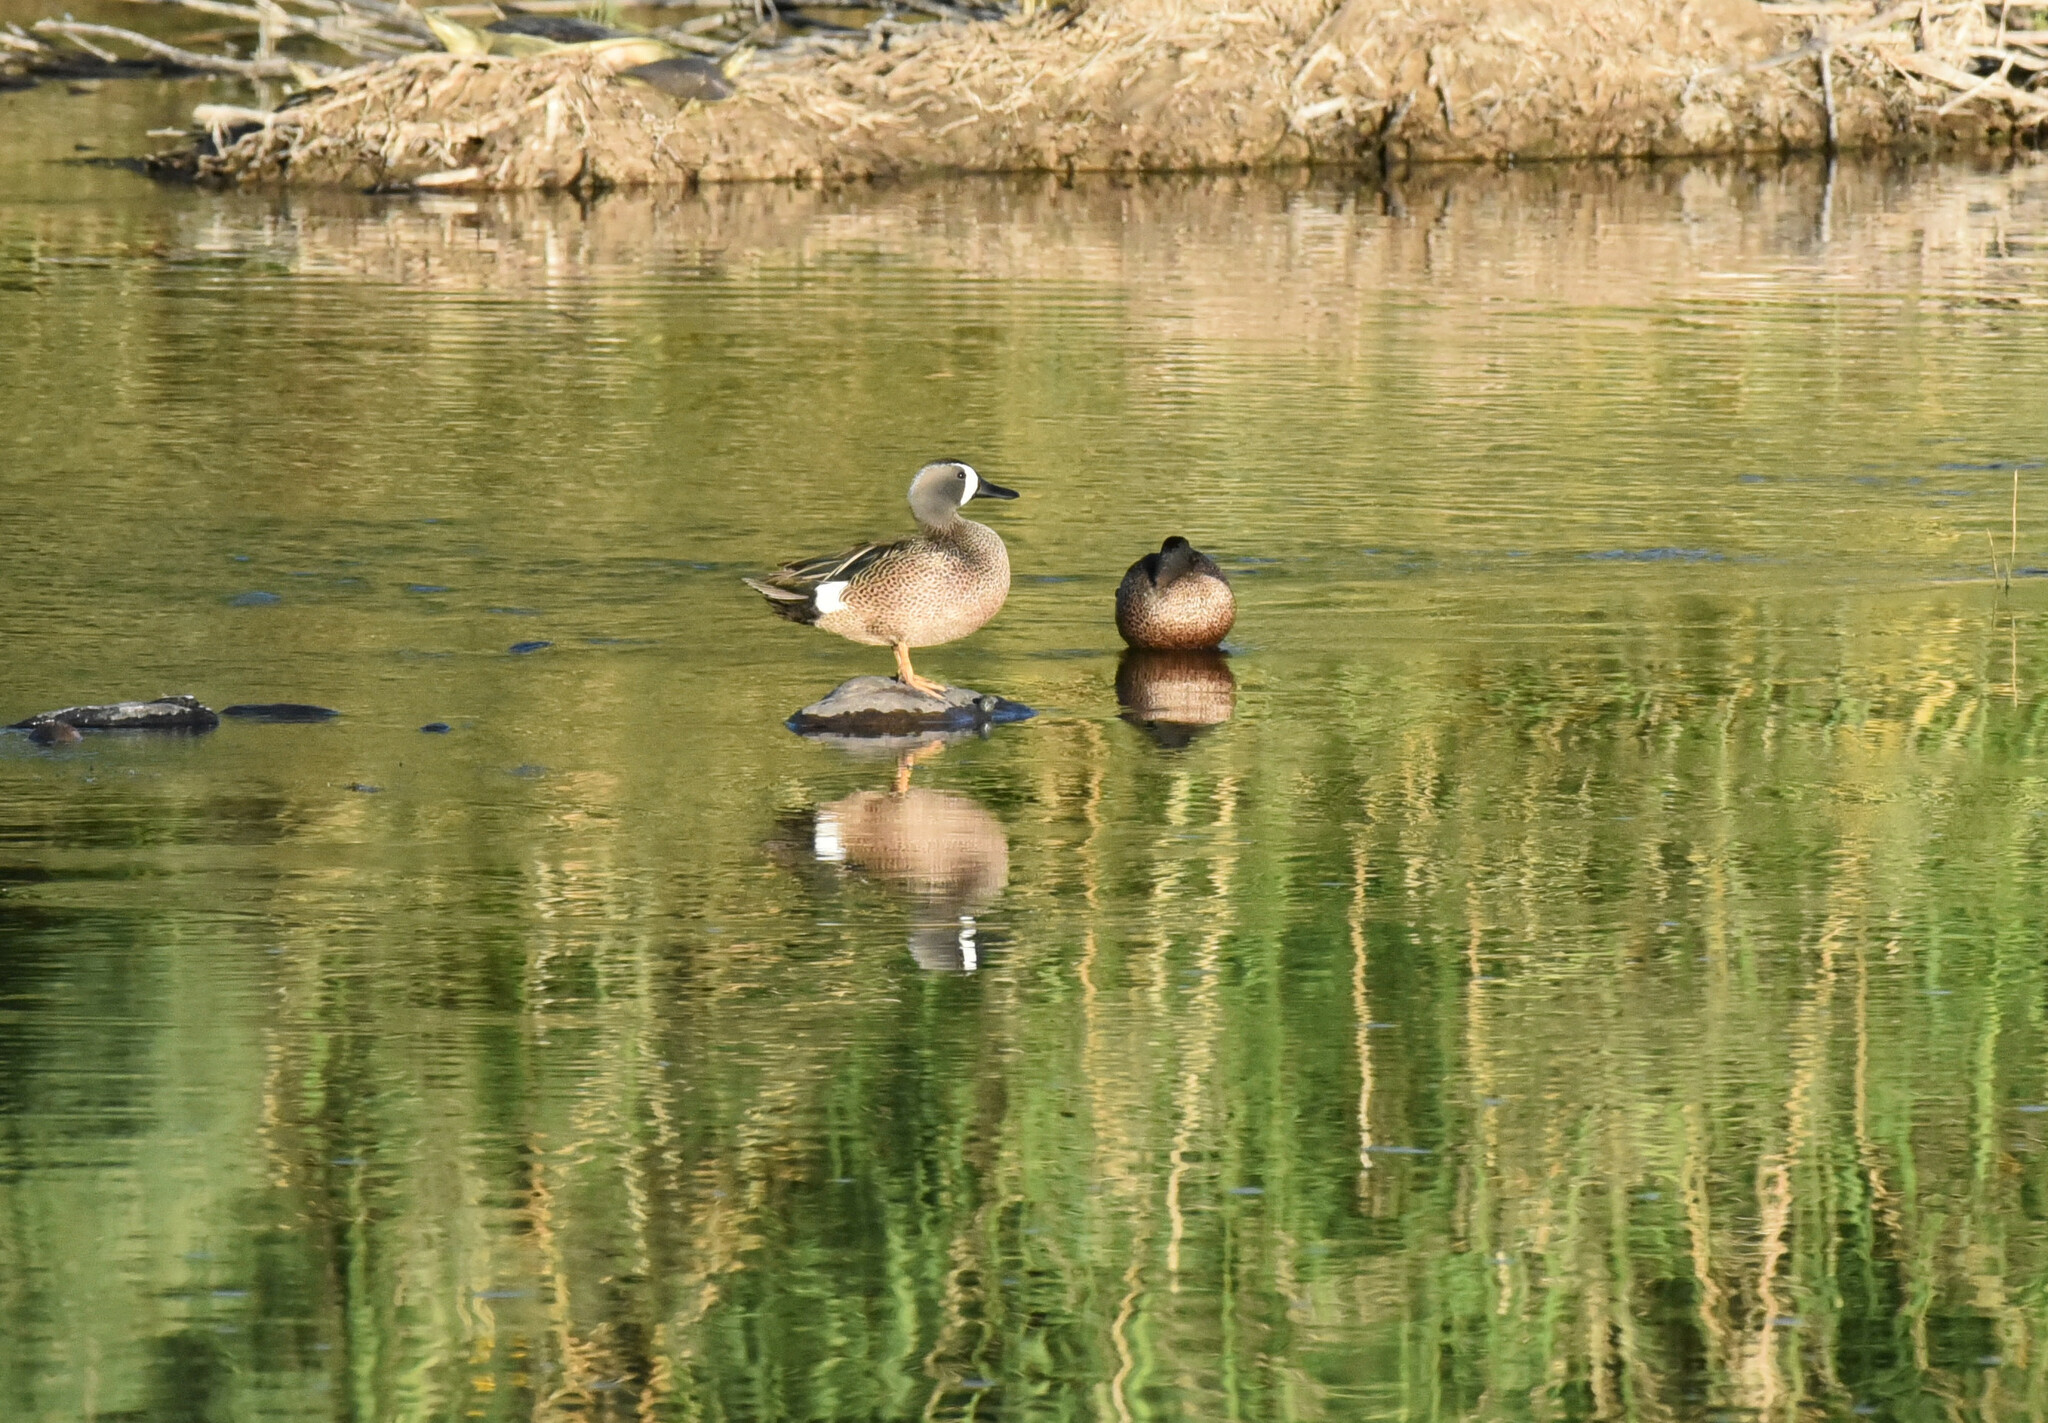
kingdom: Animalia
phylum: Chordata
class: Aves
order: Anseriformes
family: Anatidae
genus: Spatula
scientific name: Spatula discors
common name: Blue-winged teal
